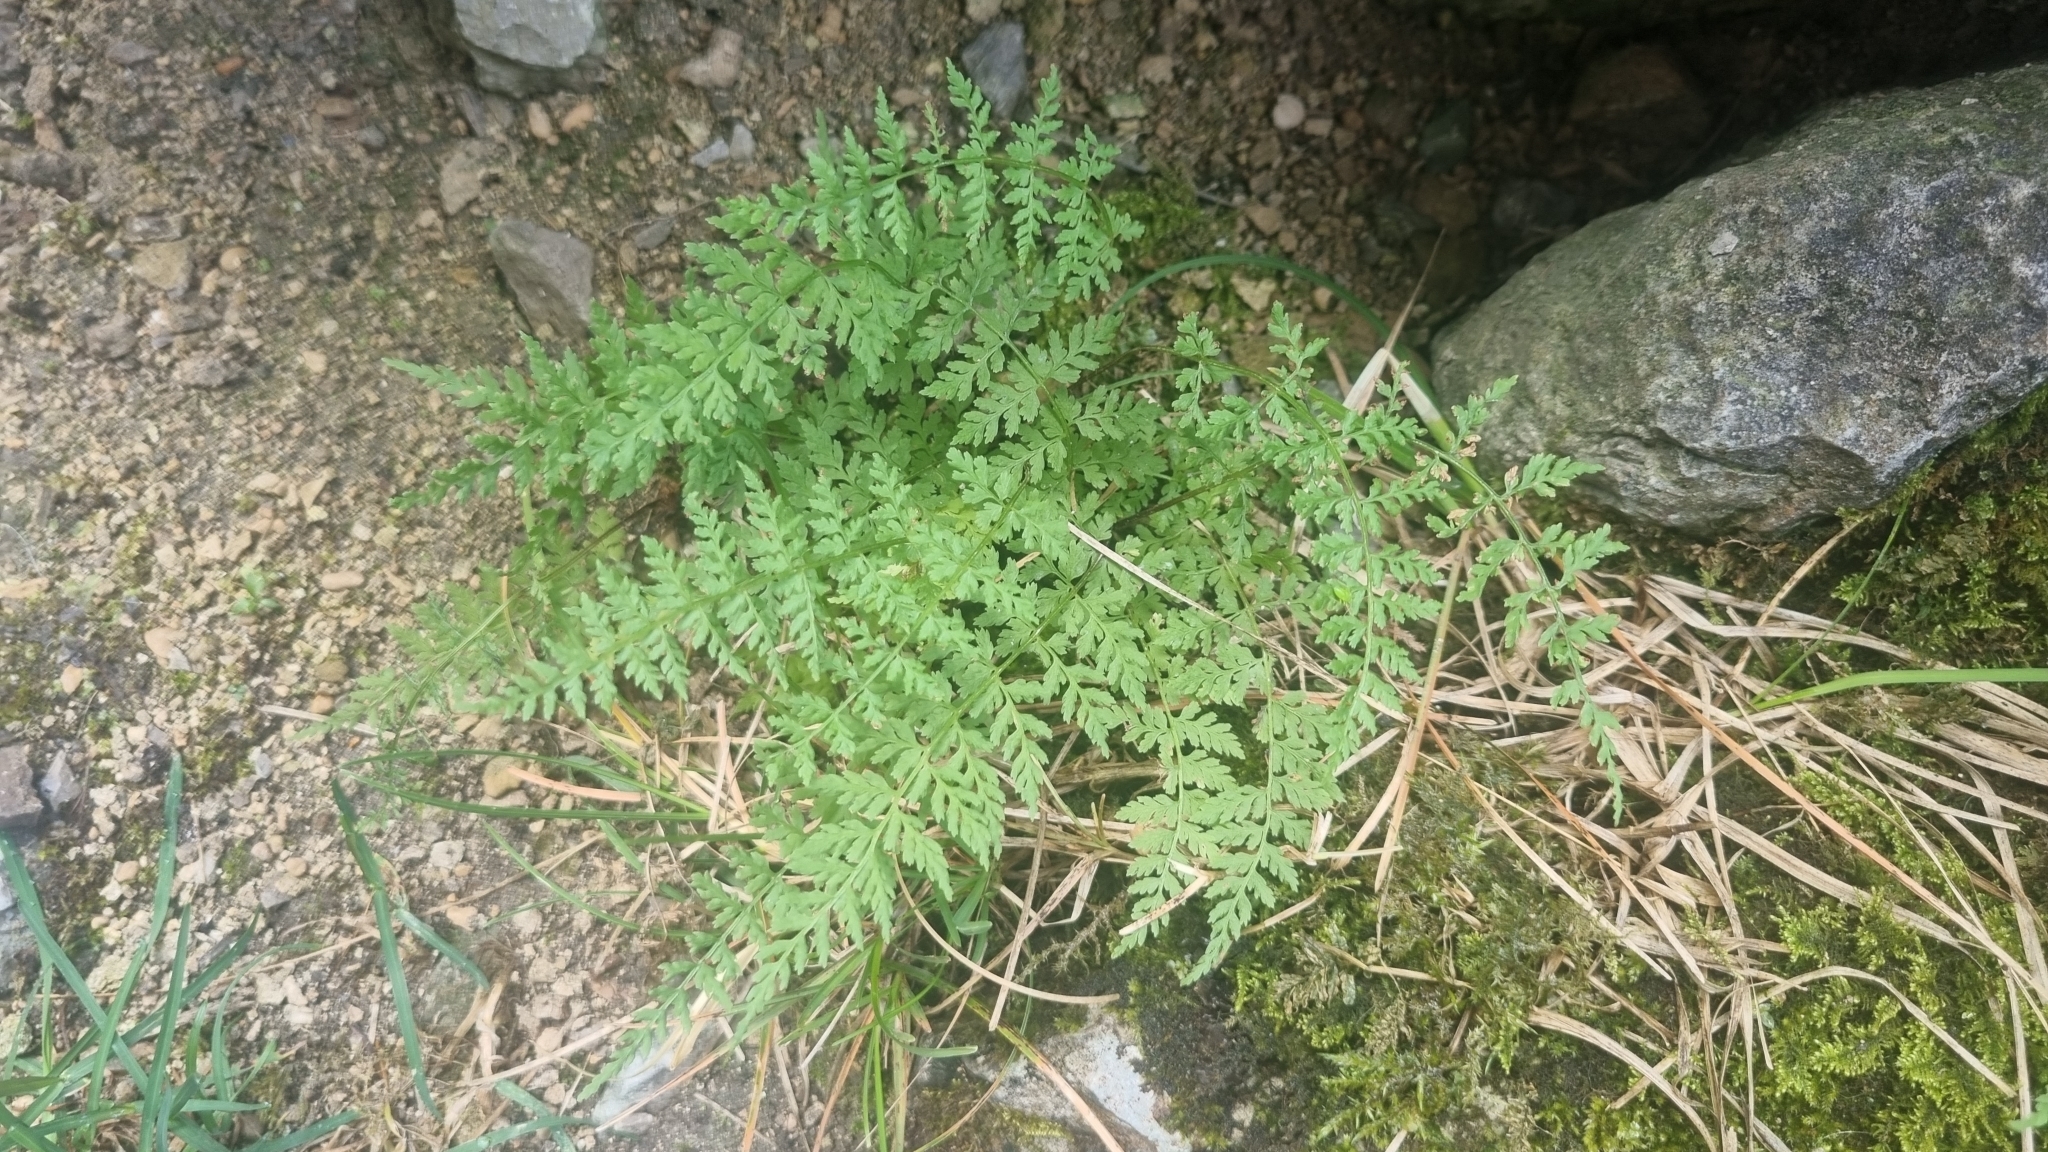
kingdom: Plantae
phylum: Tracheophyta
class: Polypodiopsida
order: Polypodiales
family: Cystopteridaceae
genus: Cystopteris
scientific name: Cystopteris fragilis
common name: Brittle bladder fern
